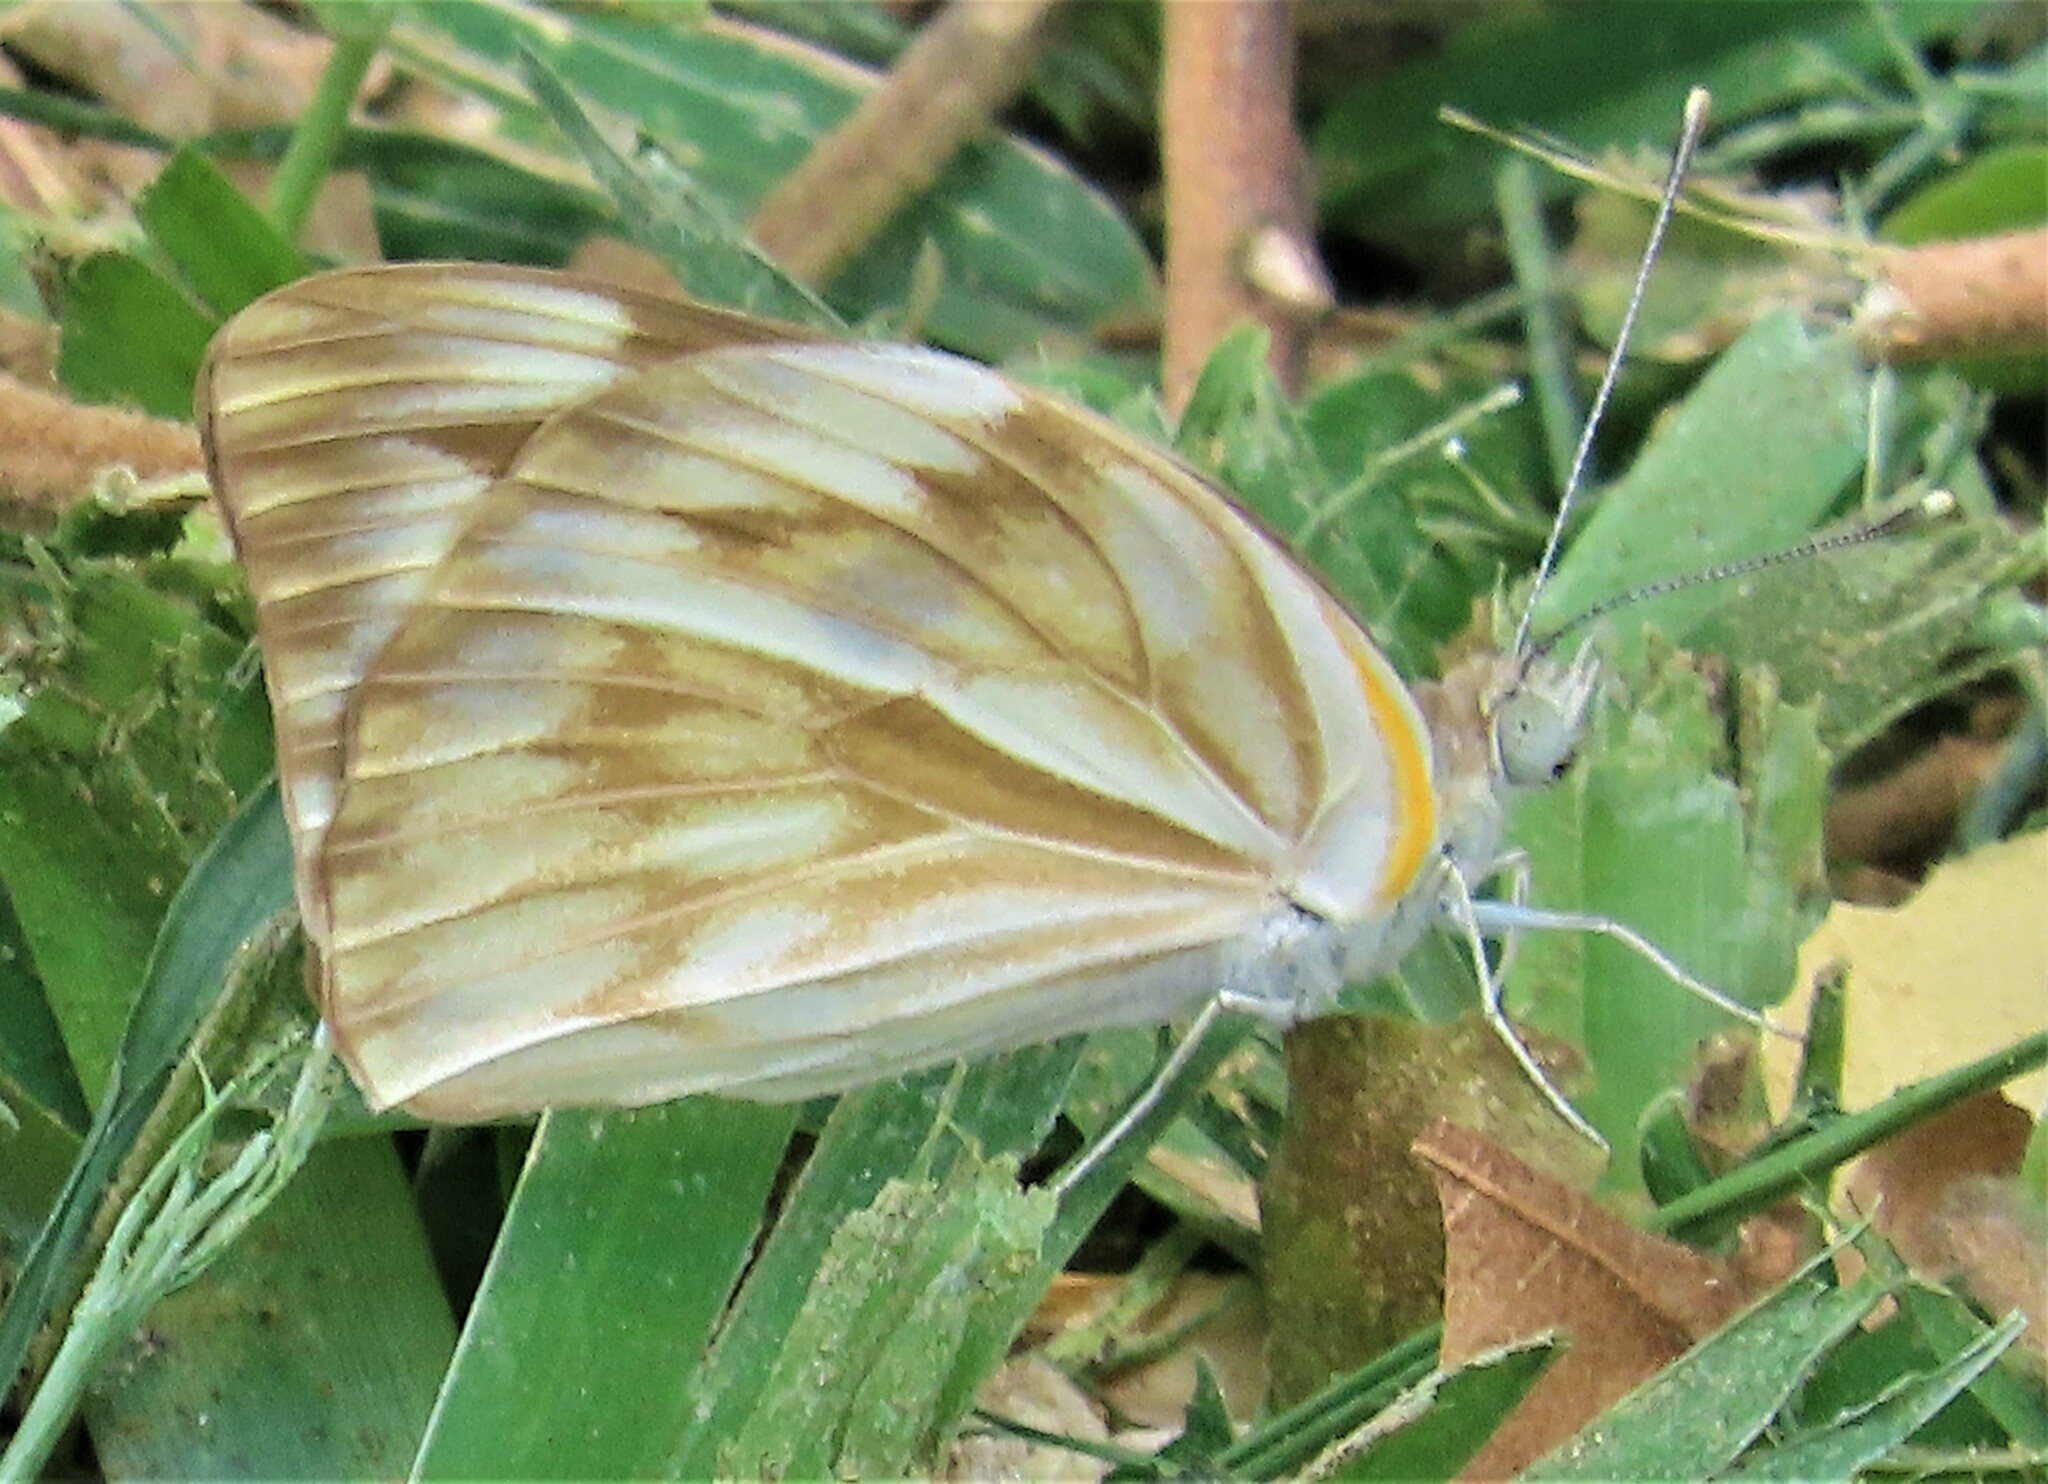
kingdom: Animalia
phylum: Arthropoda
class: Insecta
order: Lepidoptera
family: Pieridae
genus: Belenois
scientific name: Belenois gidica
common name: Pointed caper white
